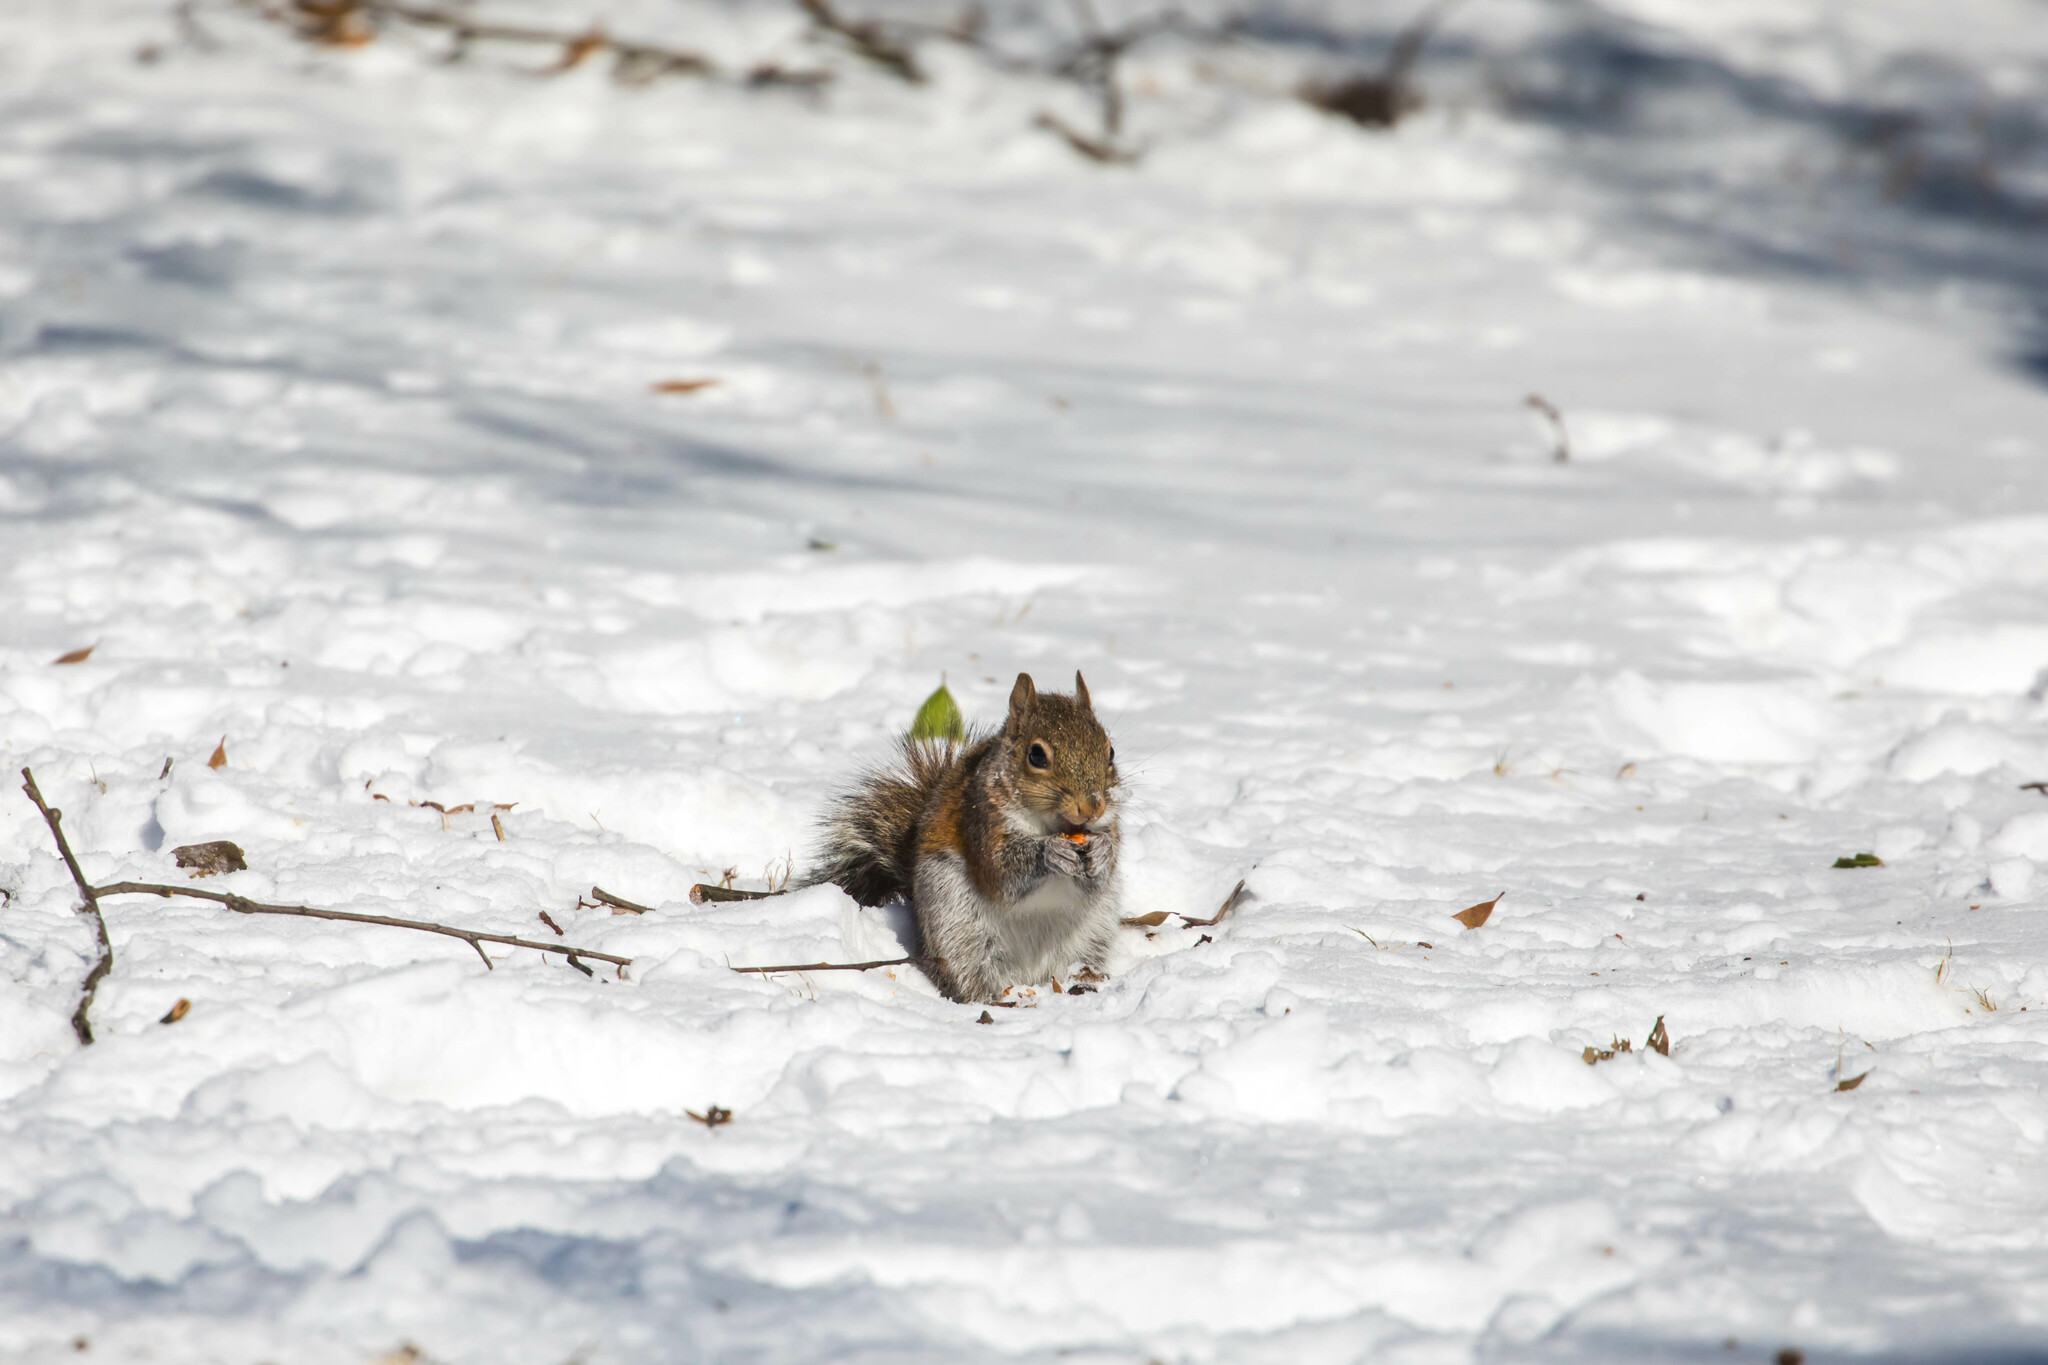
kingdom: Animalia
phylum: Chordata
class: Mammalia
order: Rodentia
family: Sciuridae
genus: Sciurus
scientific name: Sciurus carolinensis
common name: Eastern gray squirrel
